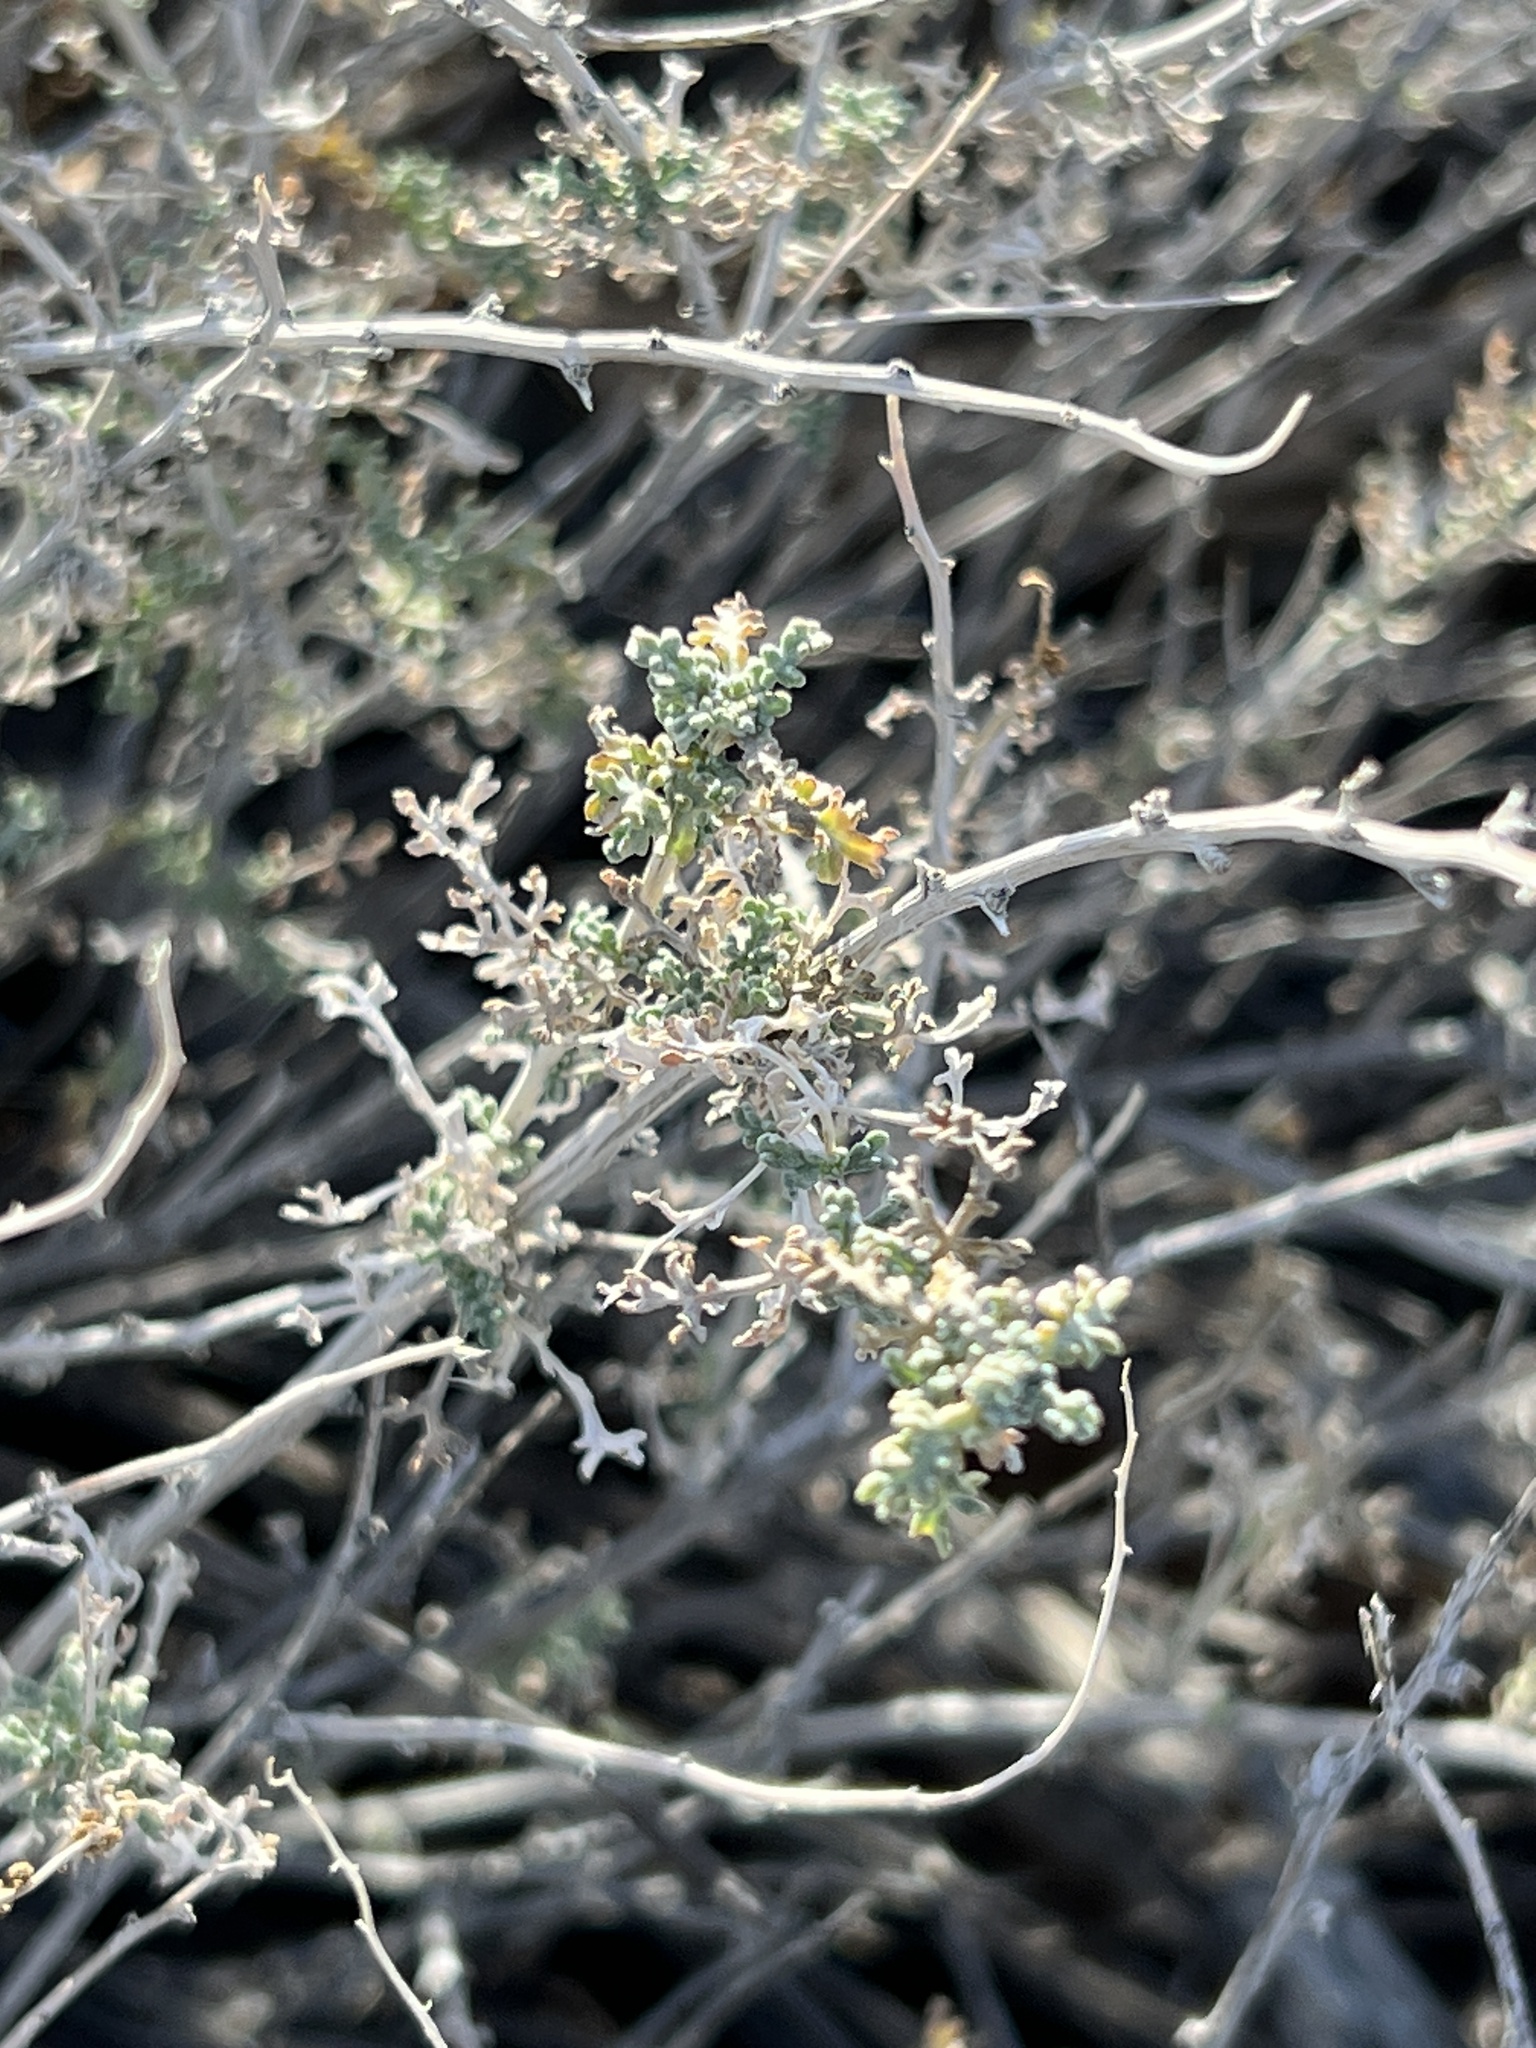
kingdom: Plantae
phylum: Tracheophyta
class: Magnoliopsida
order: Asterales
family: Asteraceae
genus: Ambrosia
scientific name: Ambrosia dumosa
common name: Bur-sage
